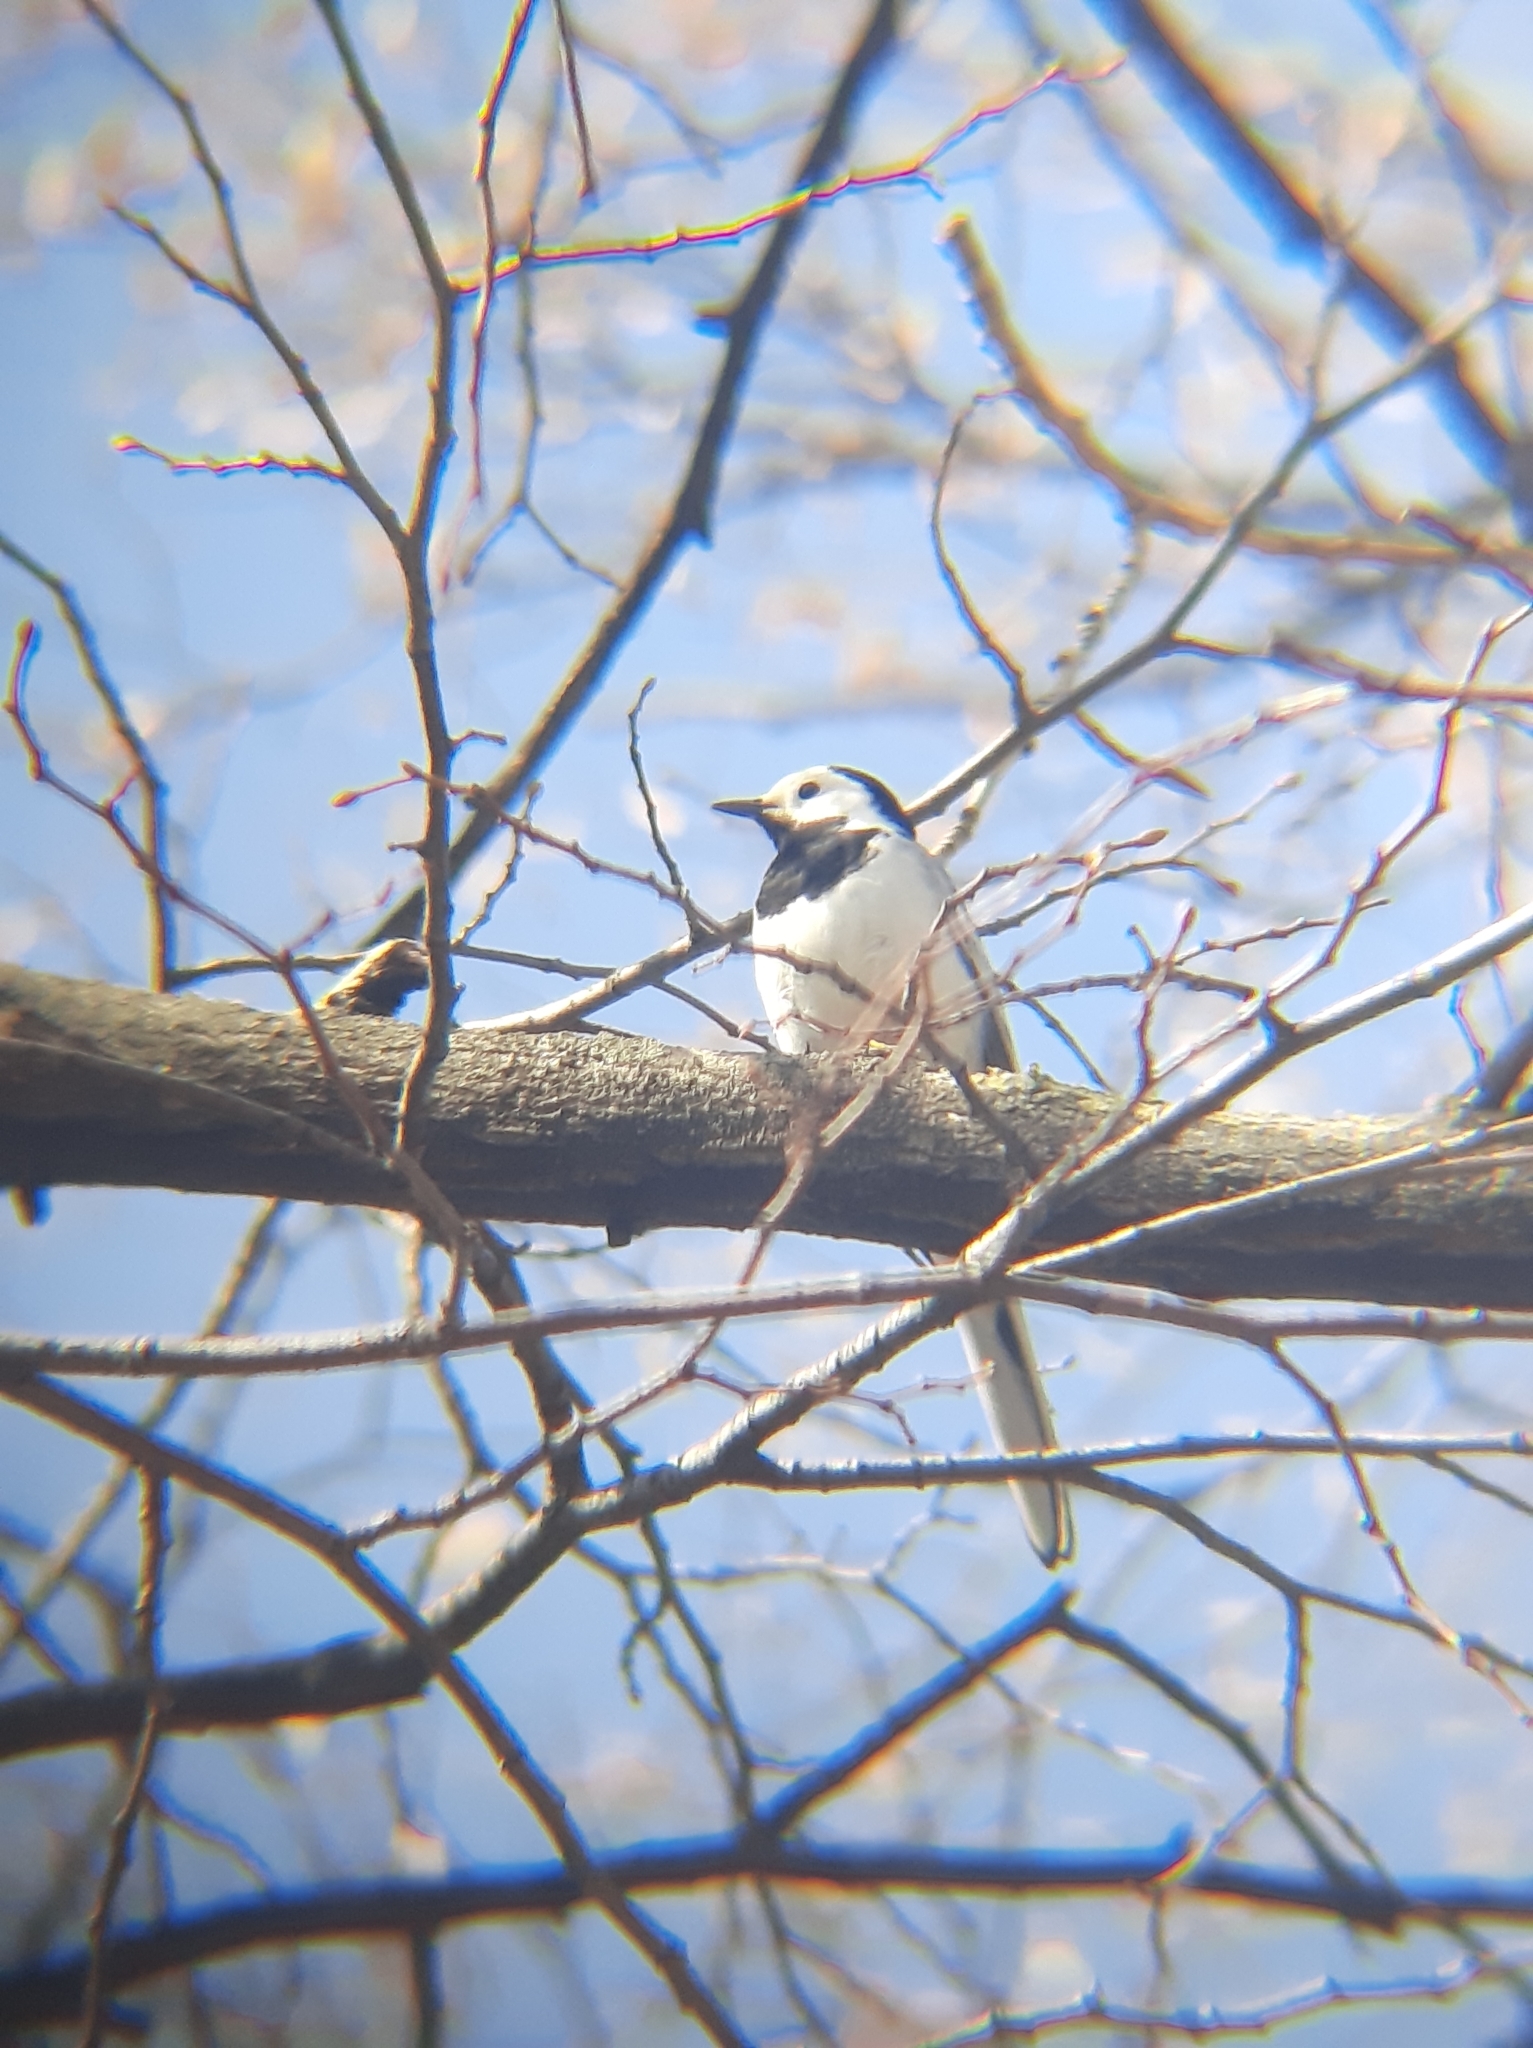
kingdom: Animalia
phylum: Chordata
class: Aves
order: Passeriformes
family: Motacillidae
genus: Motacilla
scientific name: Motacilla alba
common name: White wagtail
